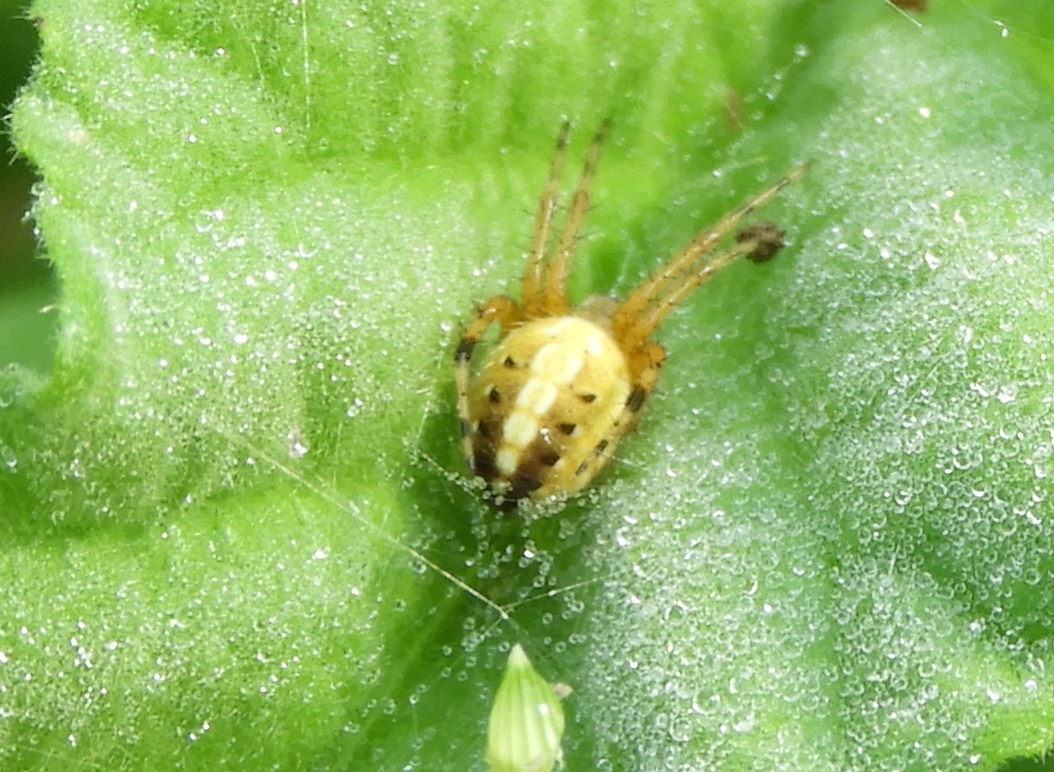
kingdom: Animalia
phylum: Arthropoda
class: Arachnida
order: Araneae
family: Araneidae
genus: Neoscona
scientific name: Neoscona
